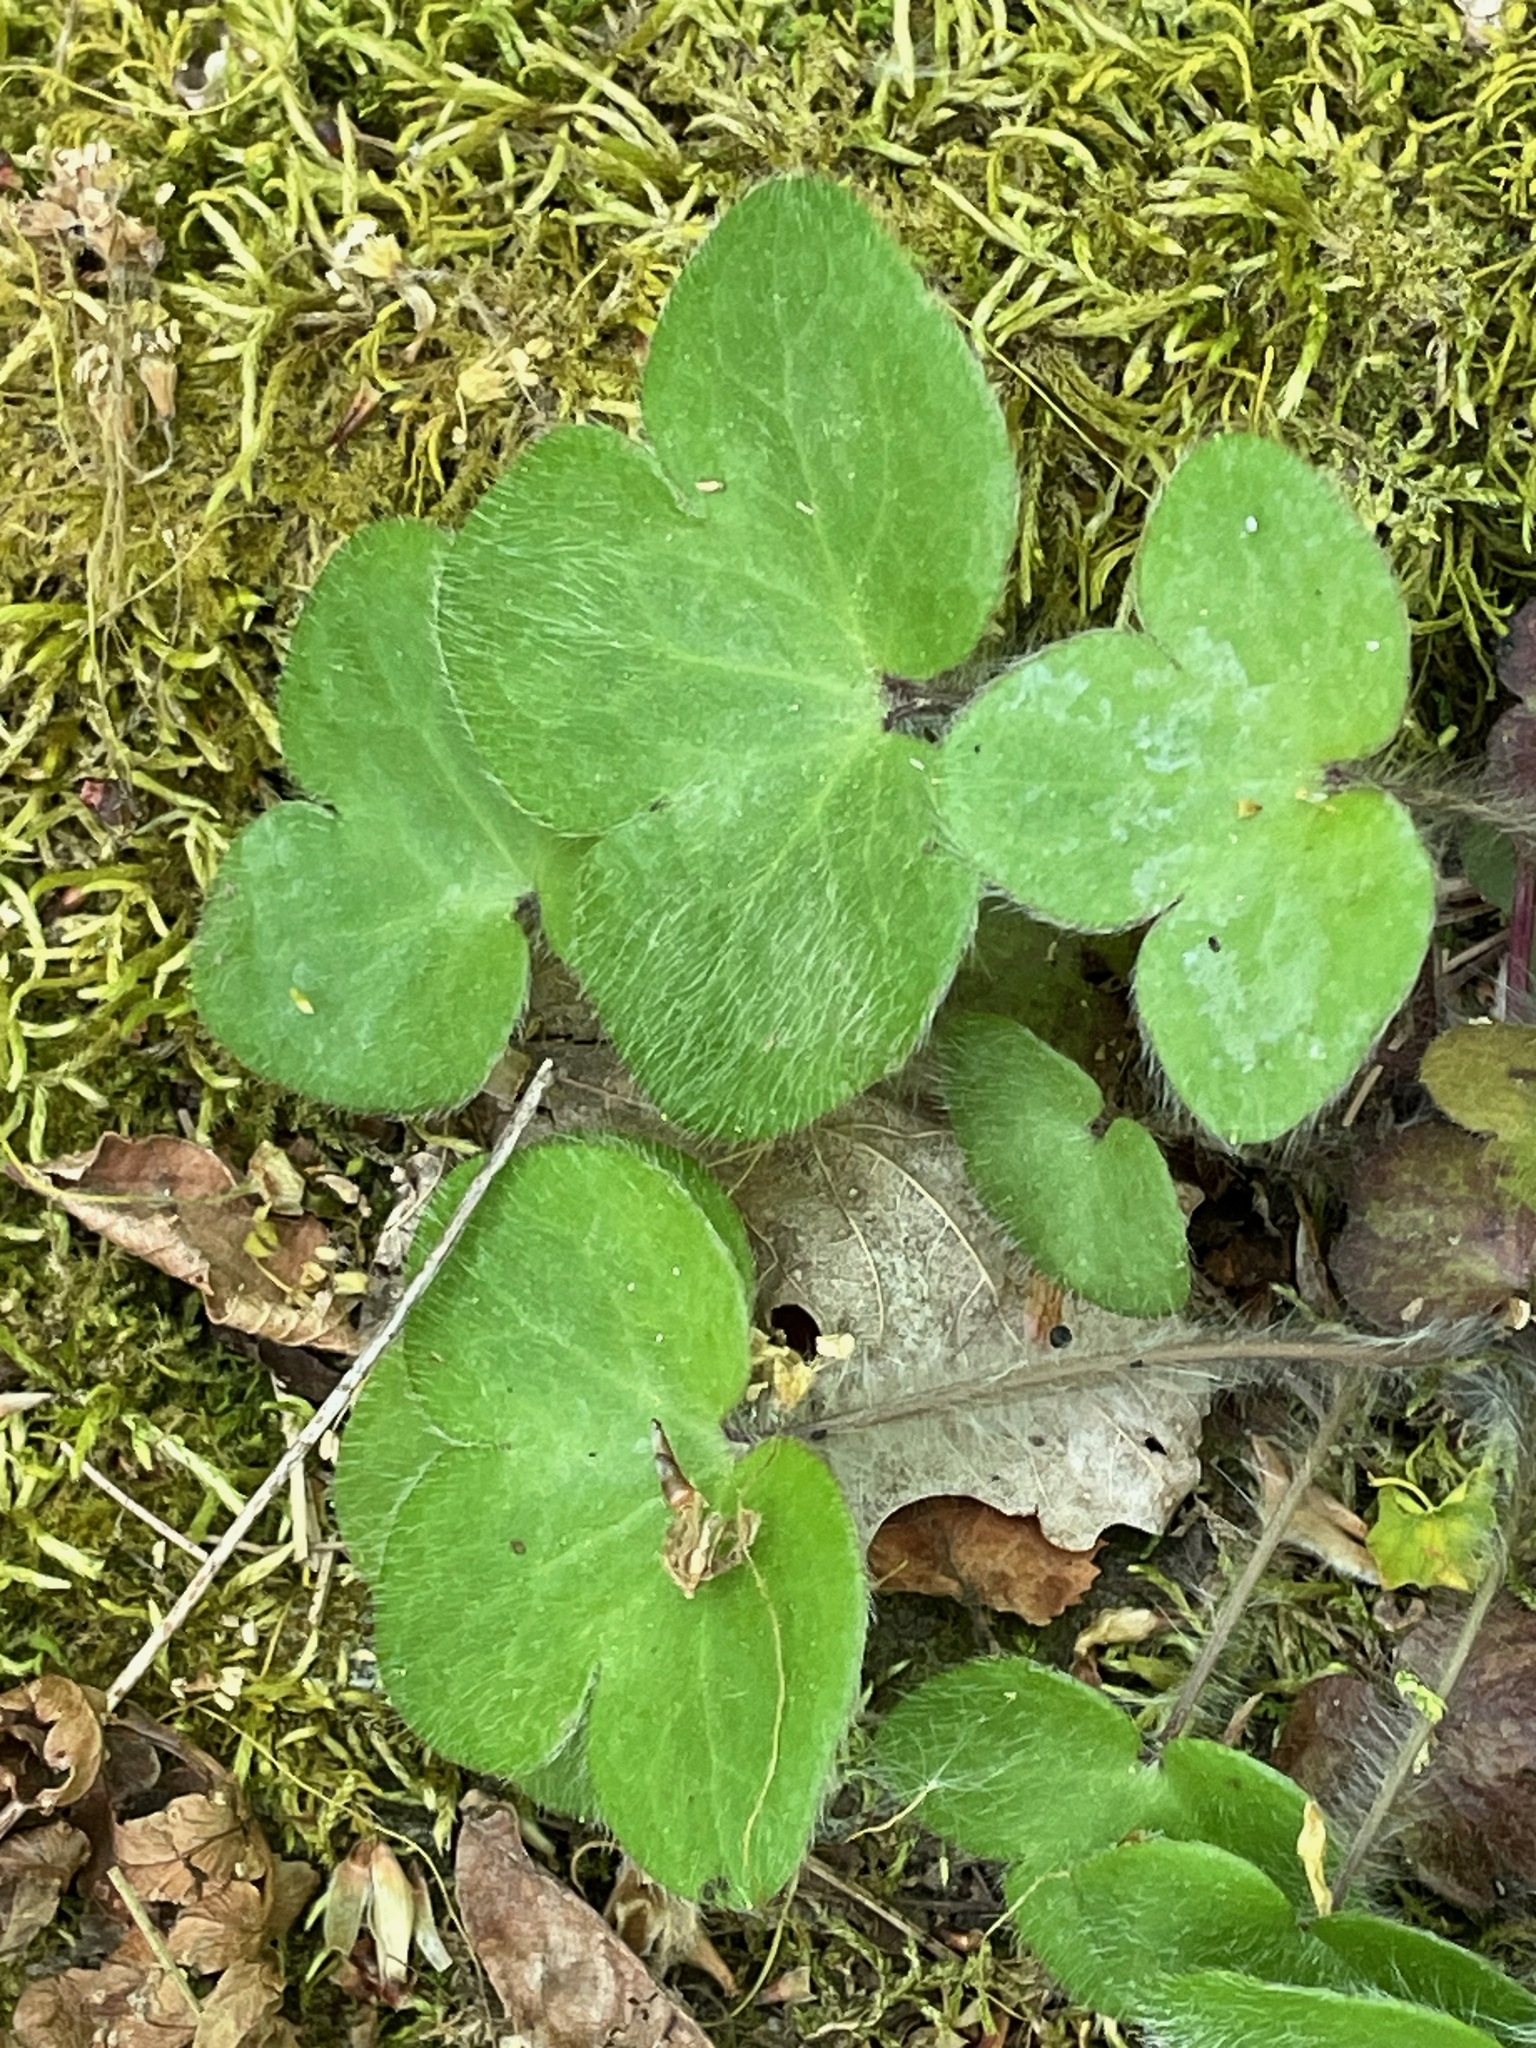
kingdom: Plantae
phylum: Tracheophyta
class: Magnoliopsida
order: Ranunculales
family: Ranunculaceae
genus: Hepatica
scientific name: Hepatica americana
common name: American hepatica
